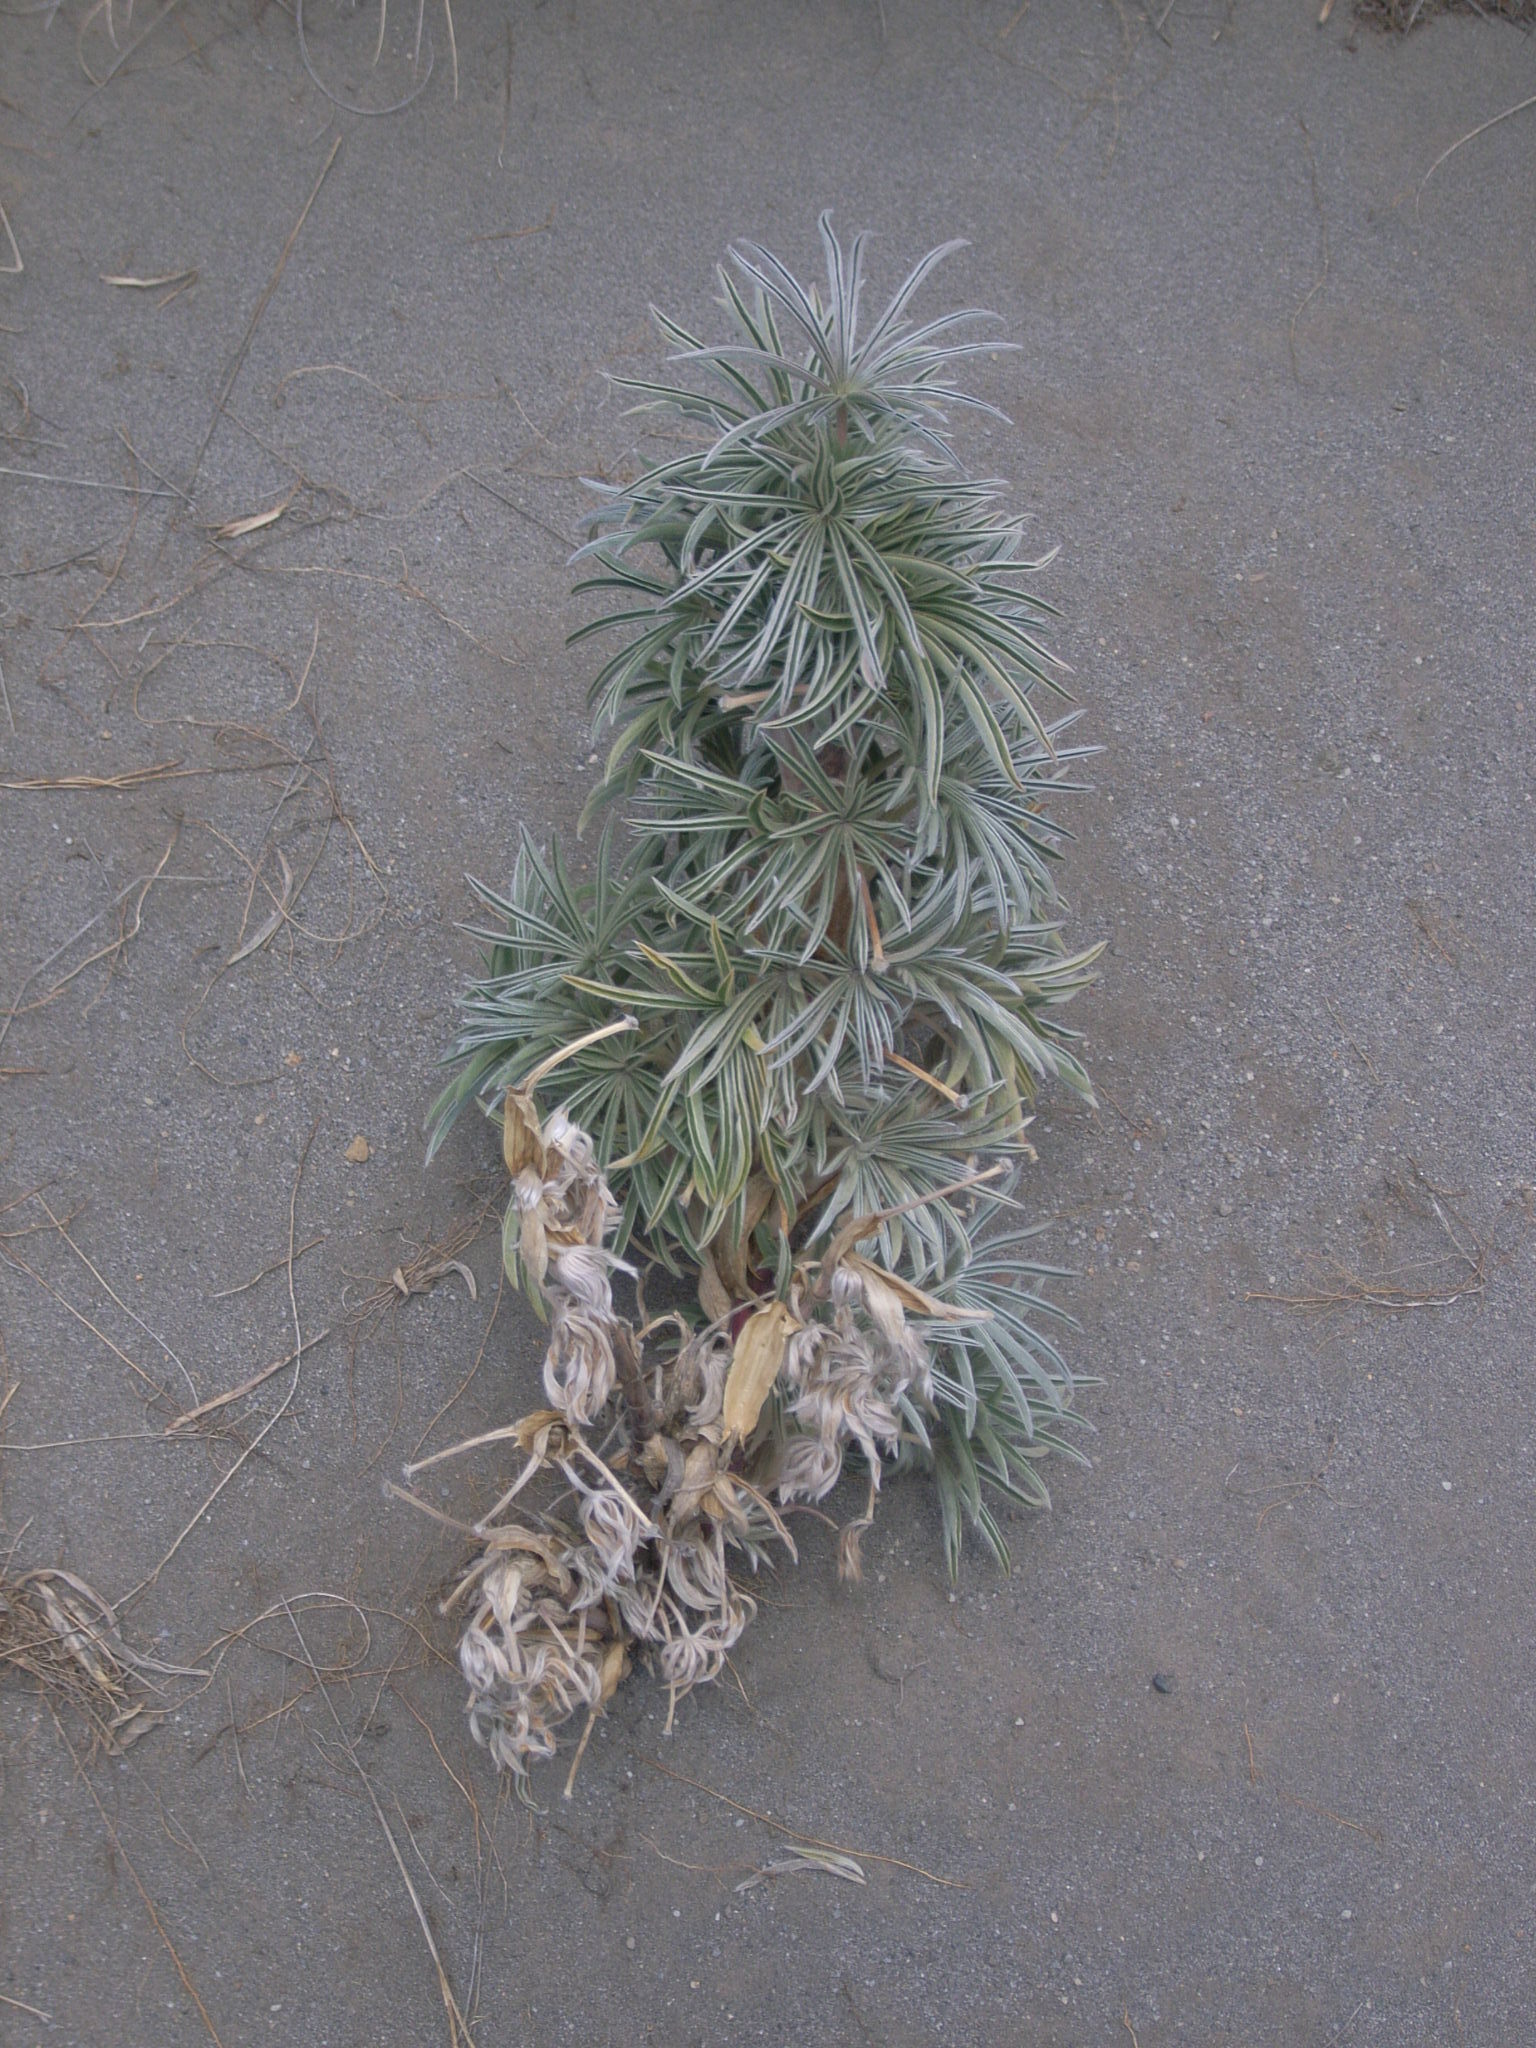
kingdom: Plantae
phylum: Tracheophyta
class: Magnoliopsida
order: Fabales
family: Fabaceae
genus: Lupinus
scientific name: Lupinus
